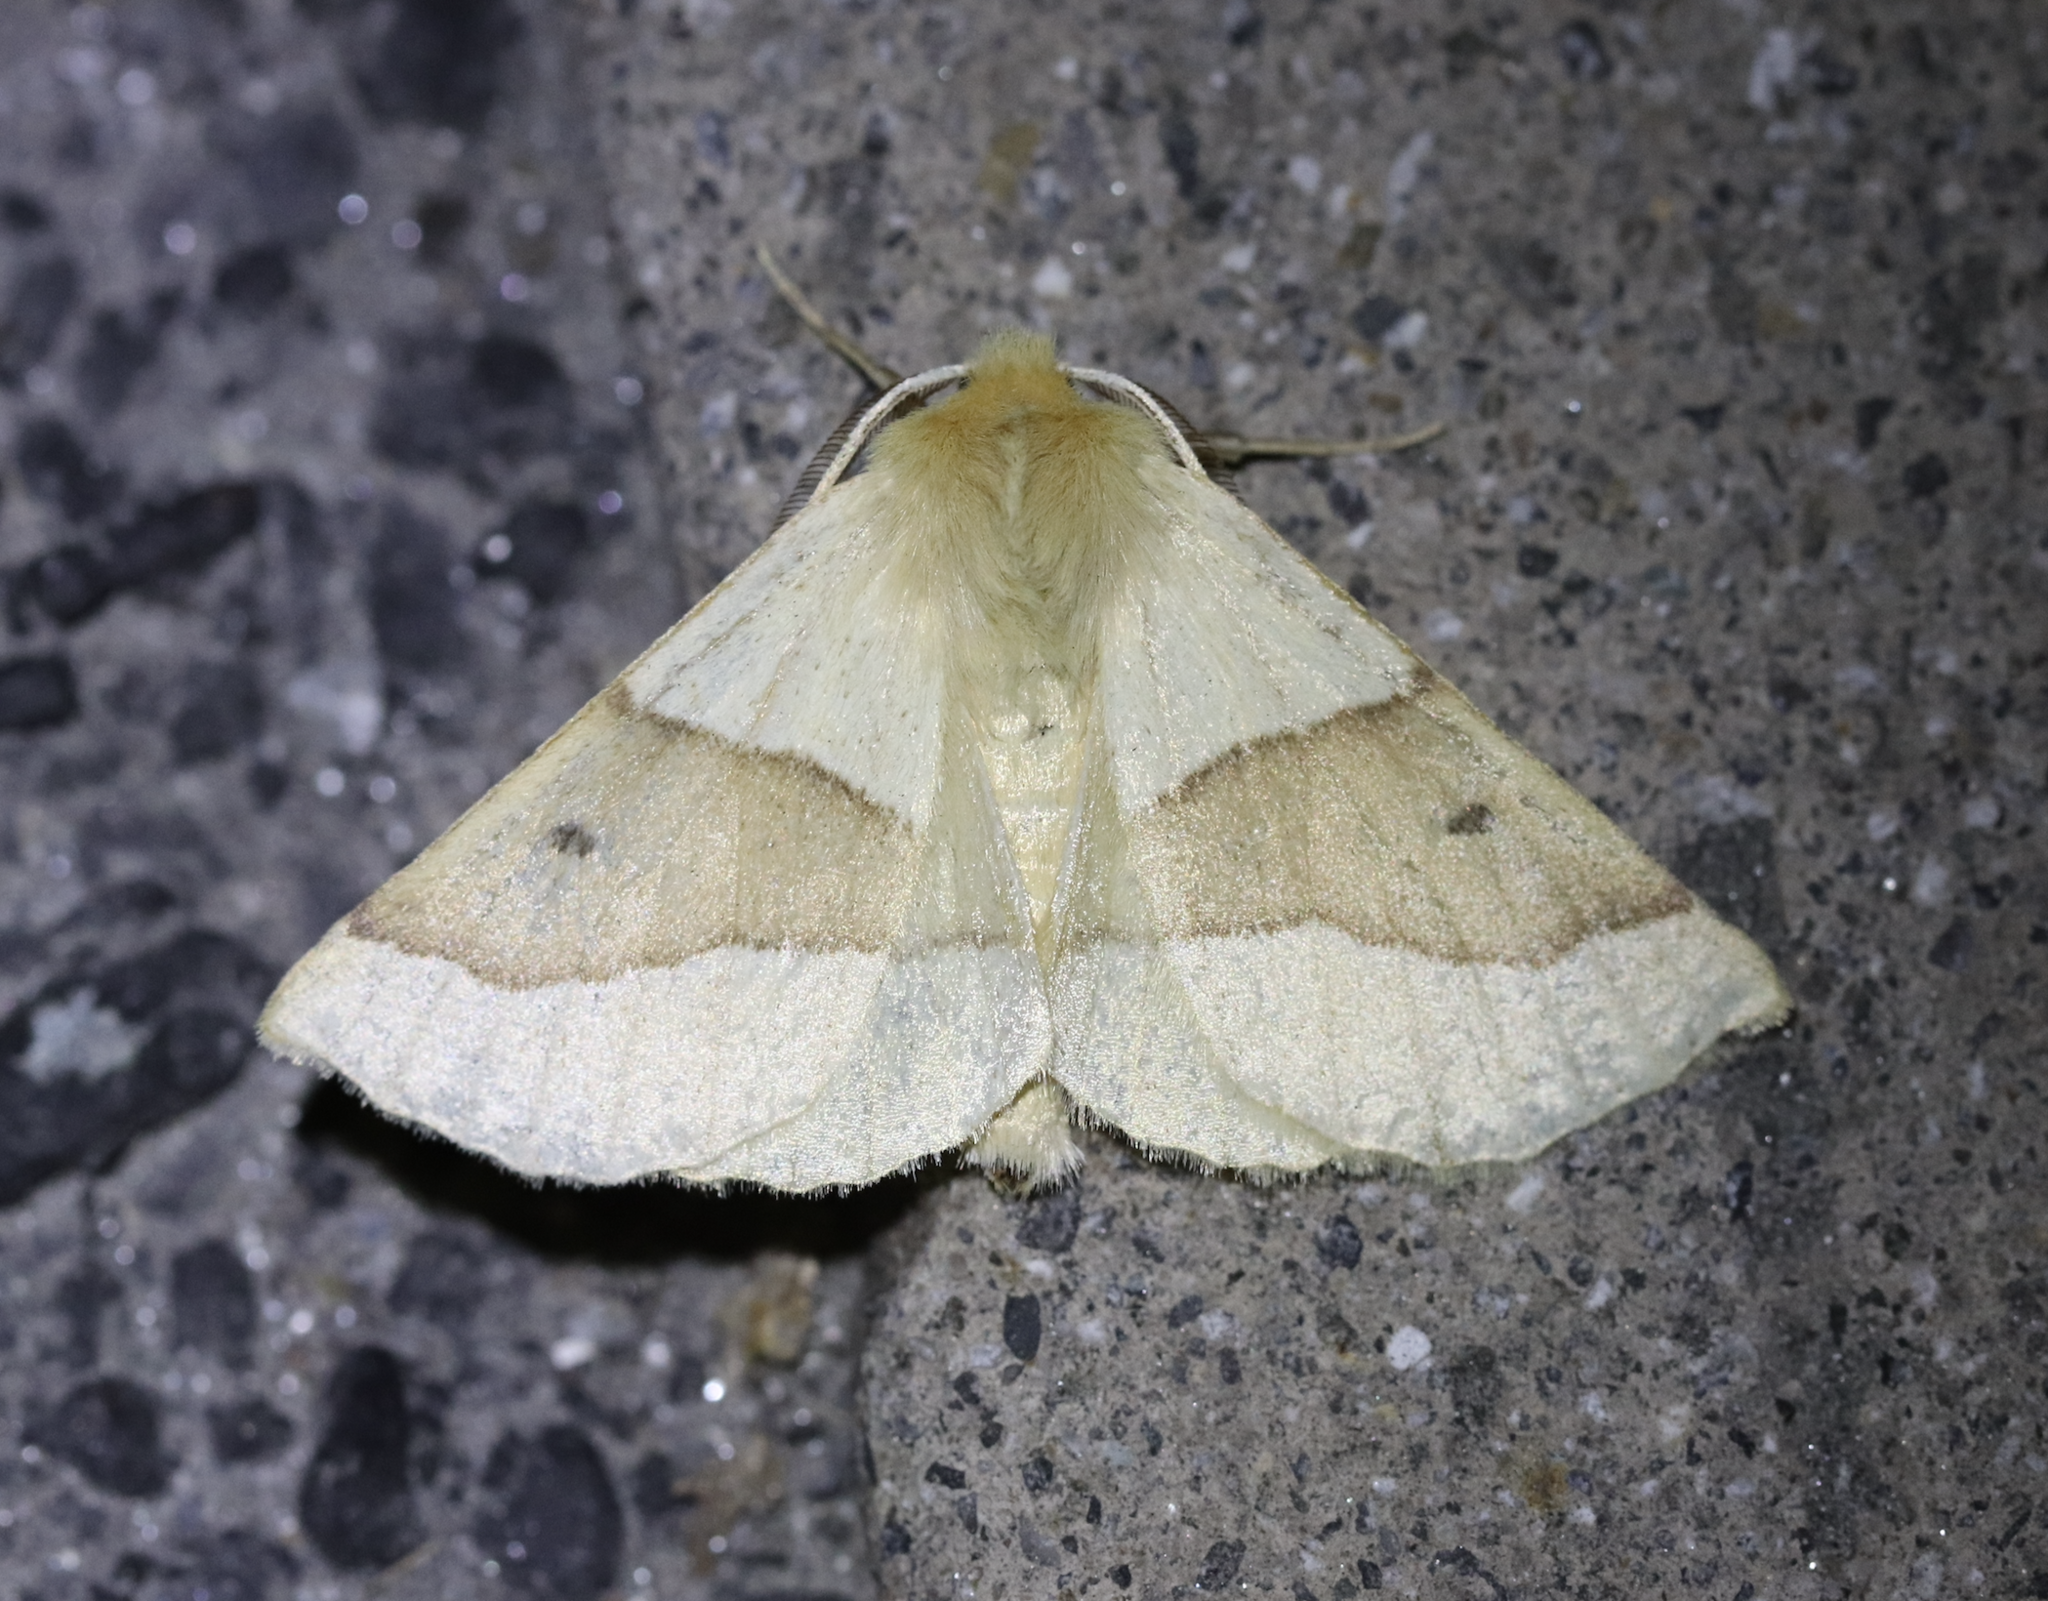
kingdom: Animalia
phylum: Arthropoda
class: Insecta
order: Lepidoptera
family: Geometridae
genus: Crocallis
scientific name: Crocallis elinguaria
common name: Scalloped oak
